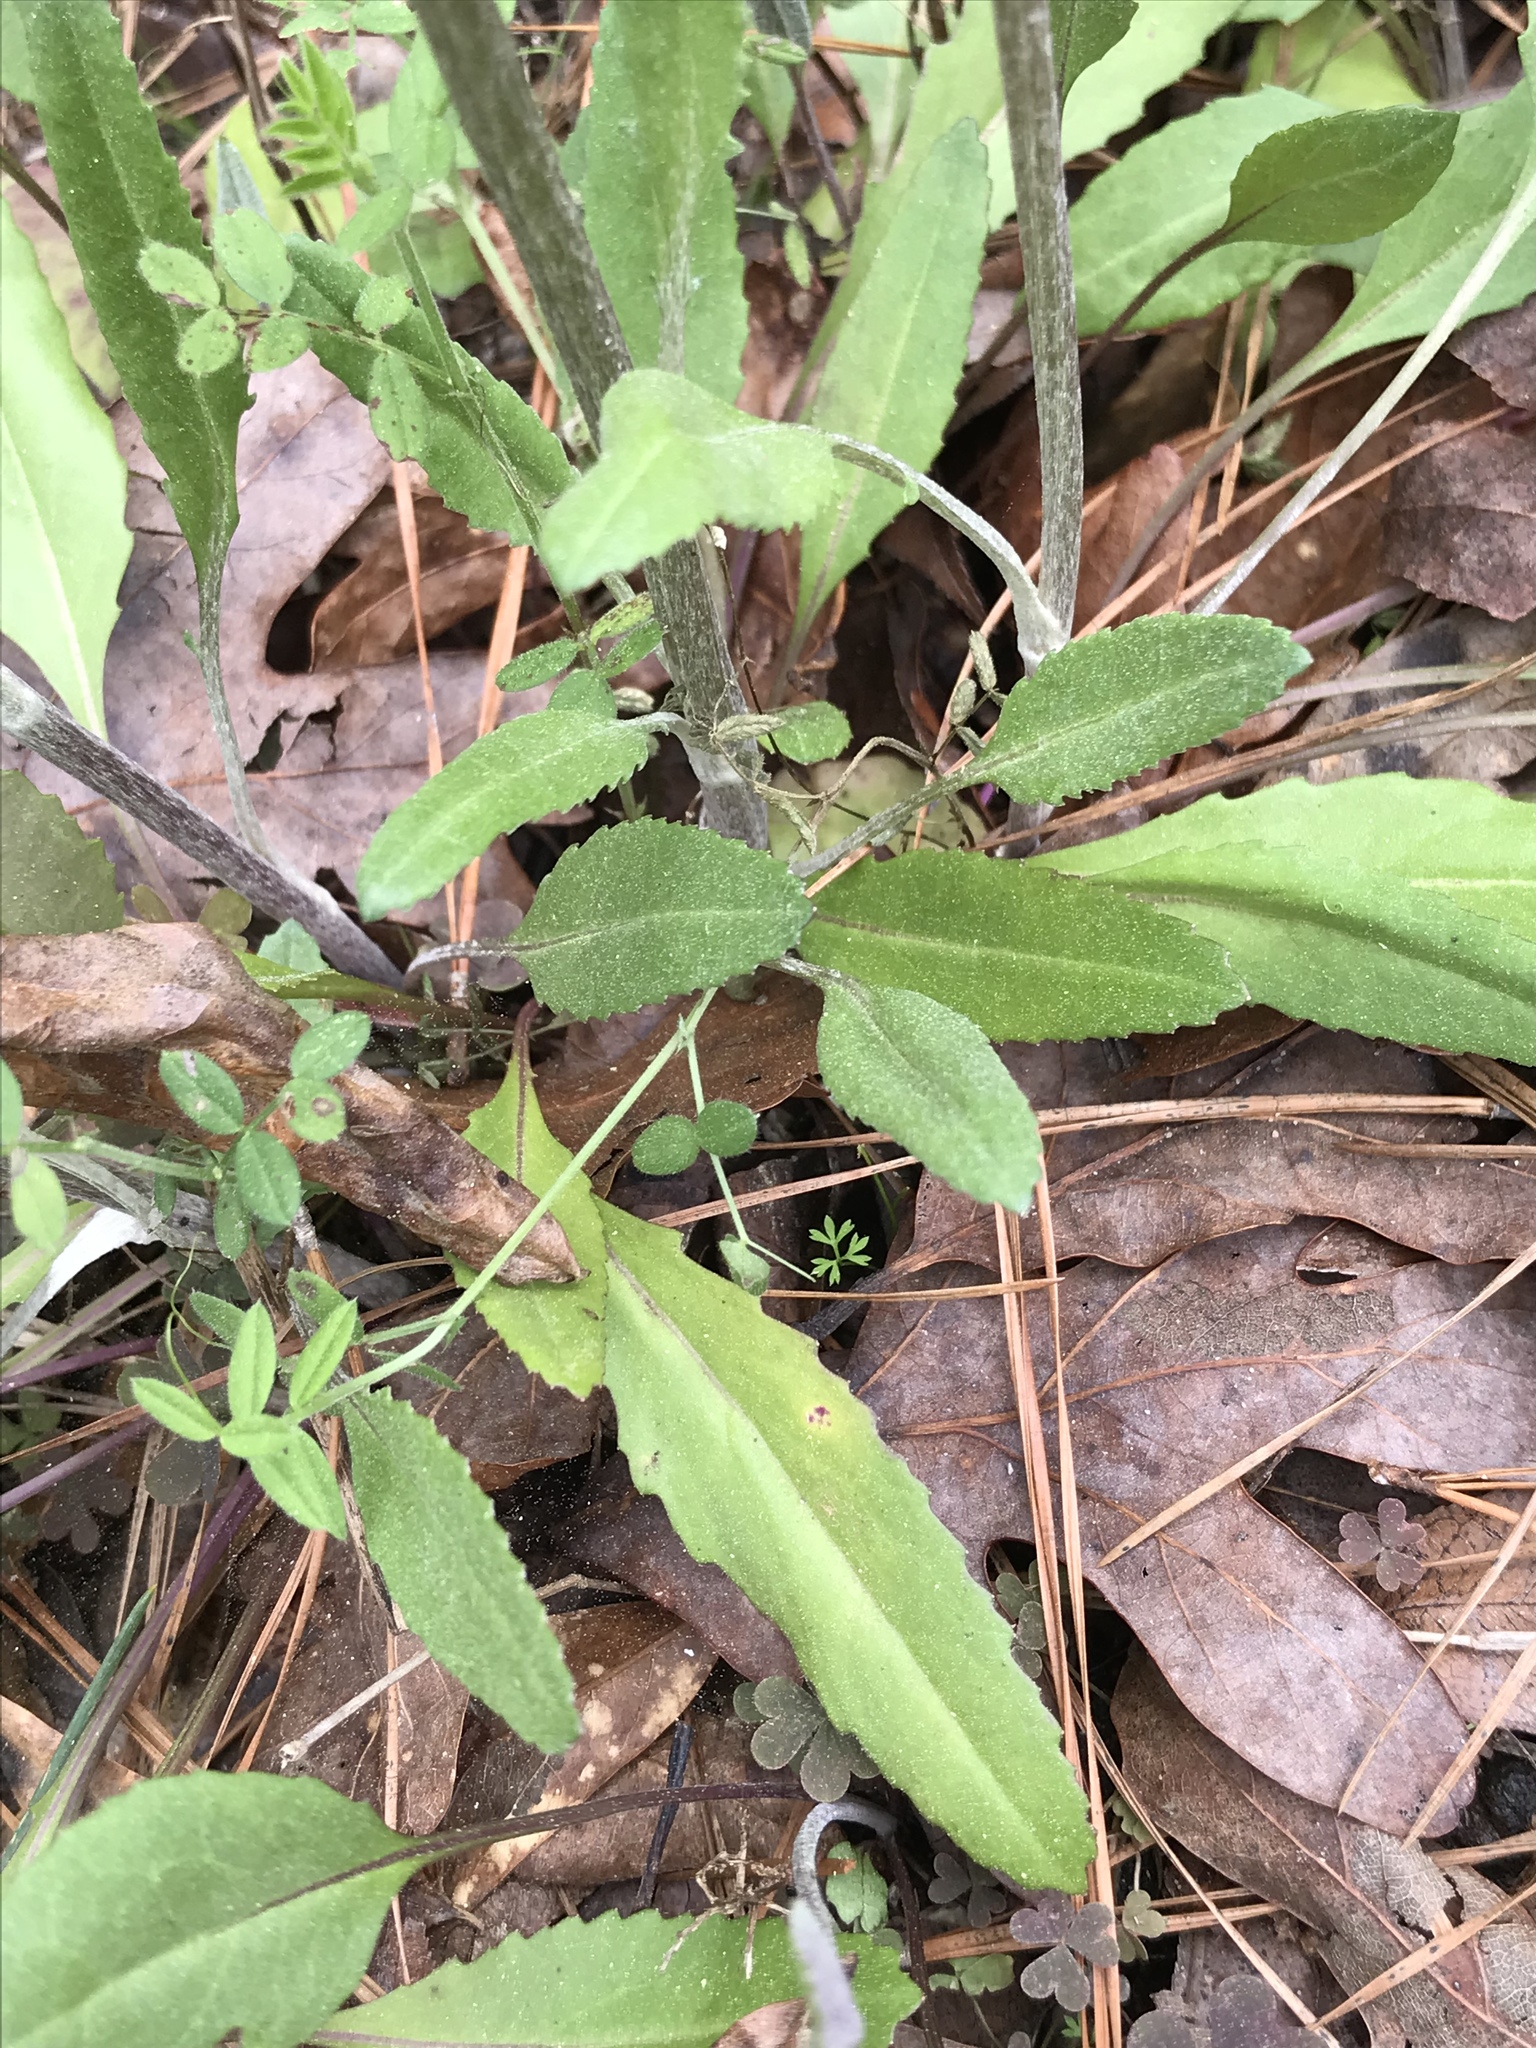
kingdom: Plantae
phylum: Tracheophyta
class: Magnoliopsida
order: Asterales
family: Asteraceae
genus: Packera
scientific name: Packera dubia
